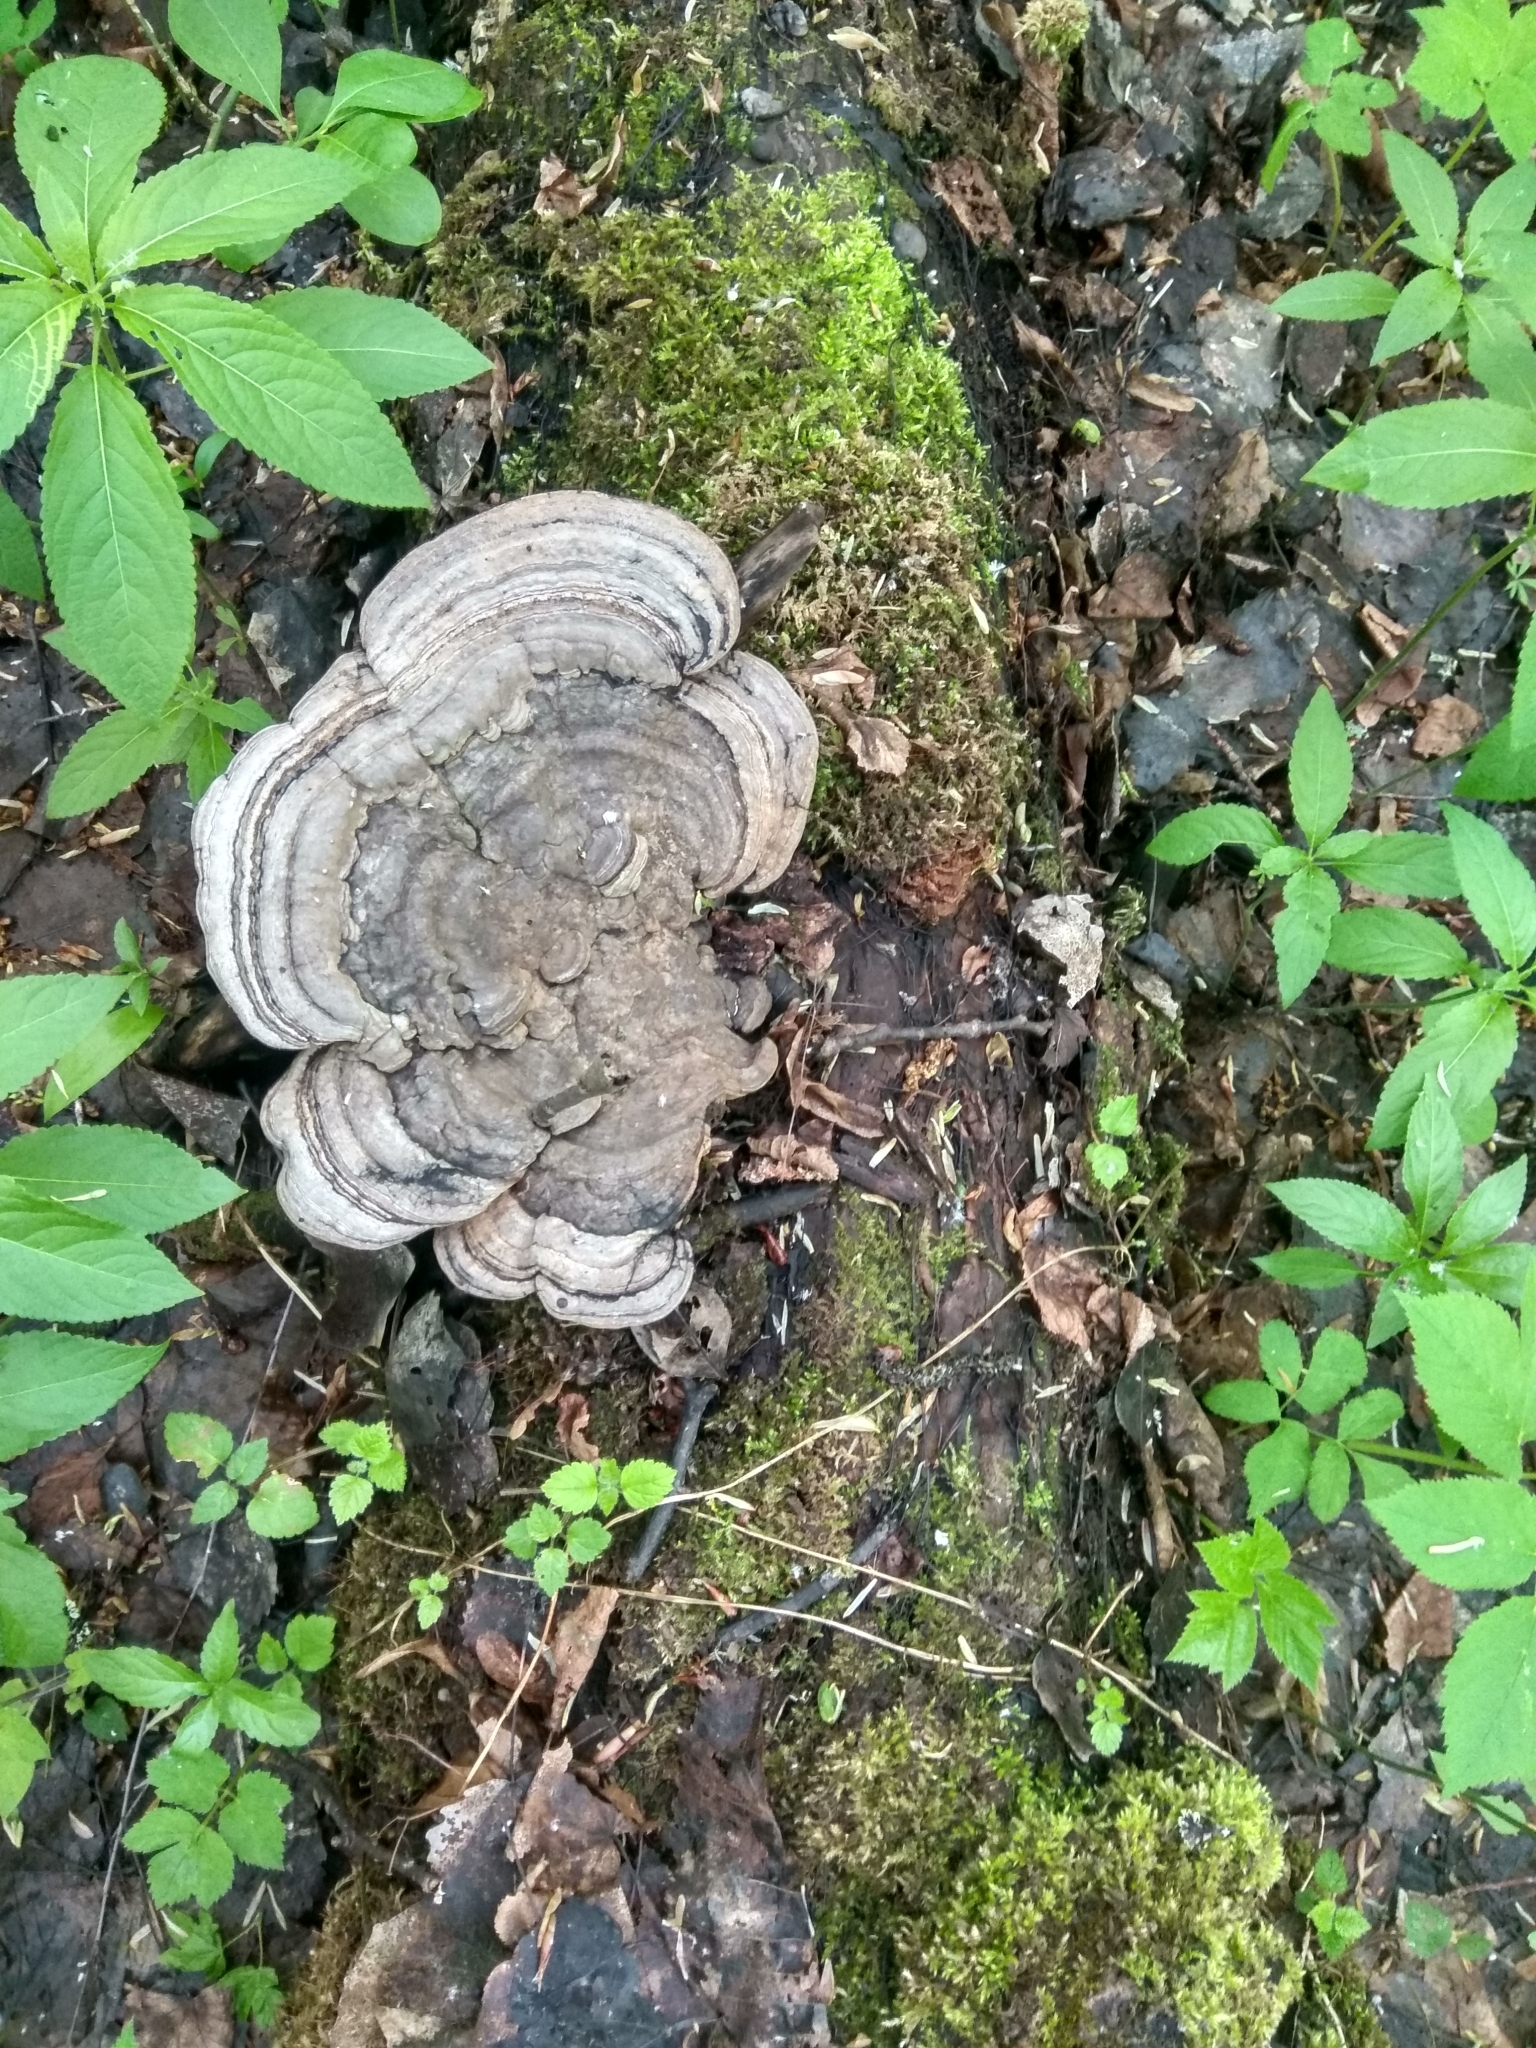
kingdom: Fungi
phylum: Basidiomycota
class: Agaricomycetes
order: Polyporales
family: Polyporaceae
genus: Fomes
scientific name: Fomes fomentarius
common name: Hoof fungus
